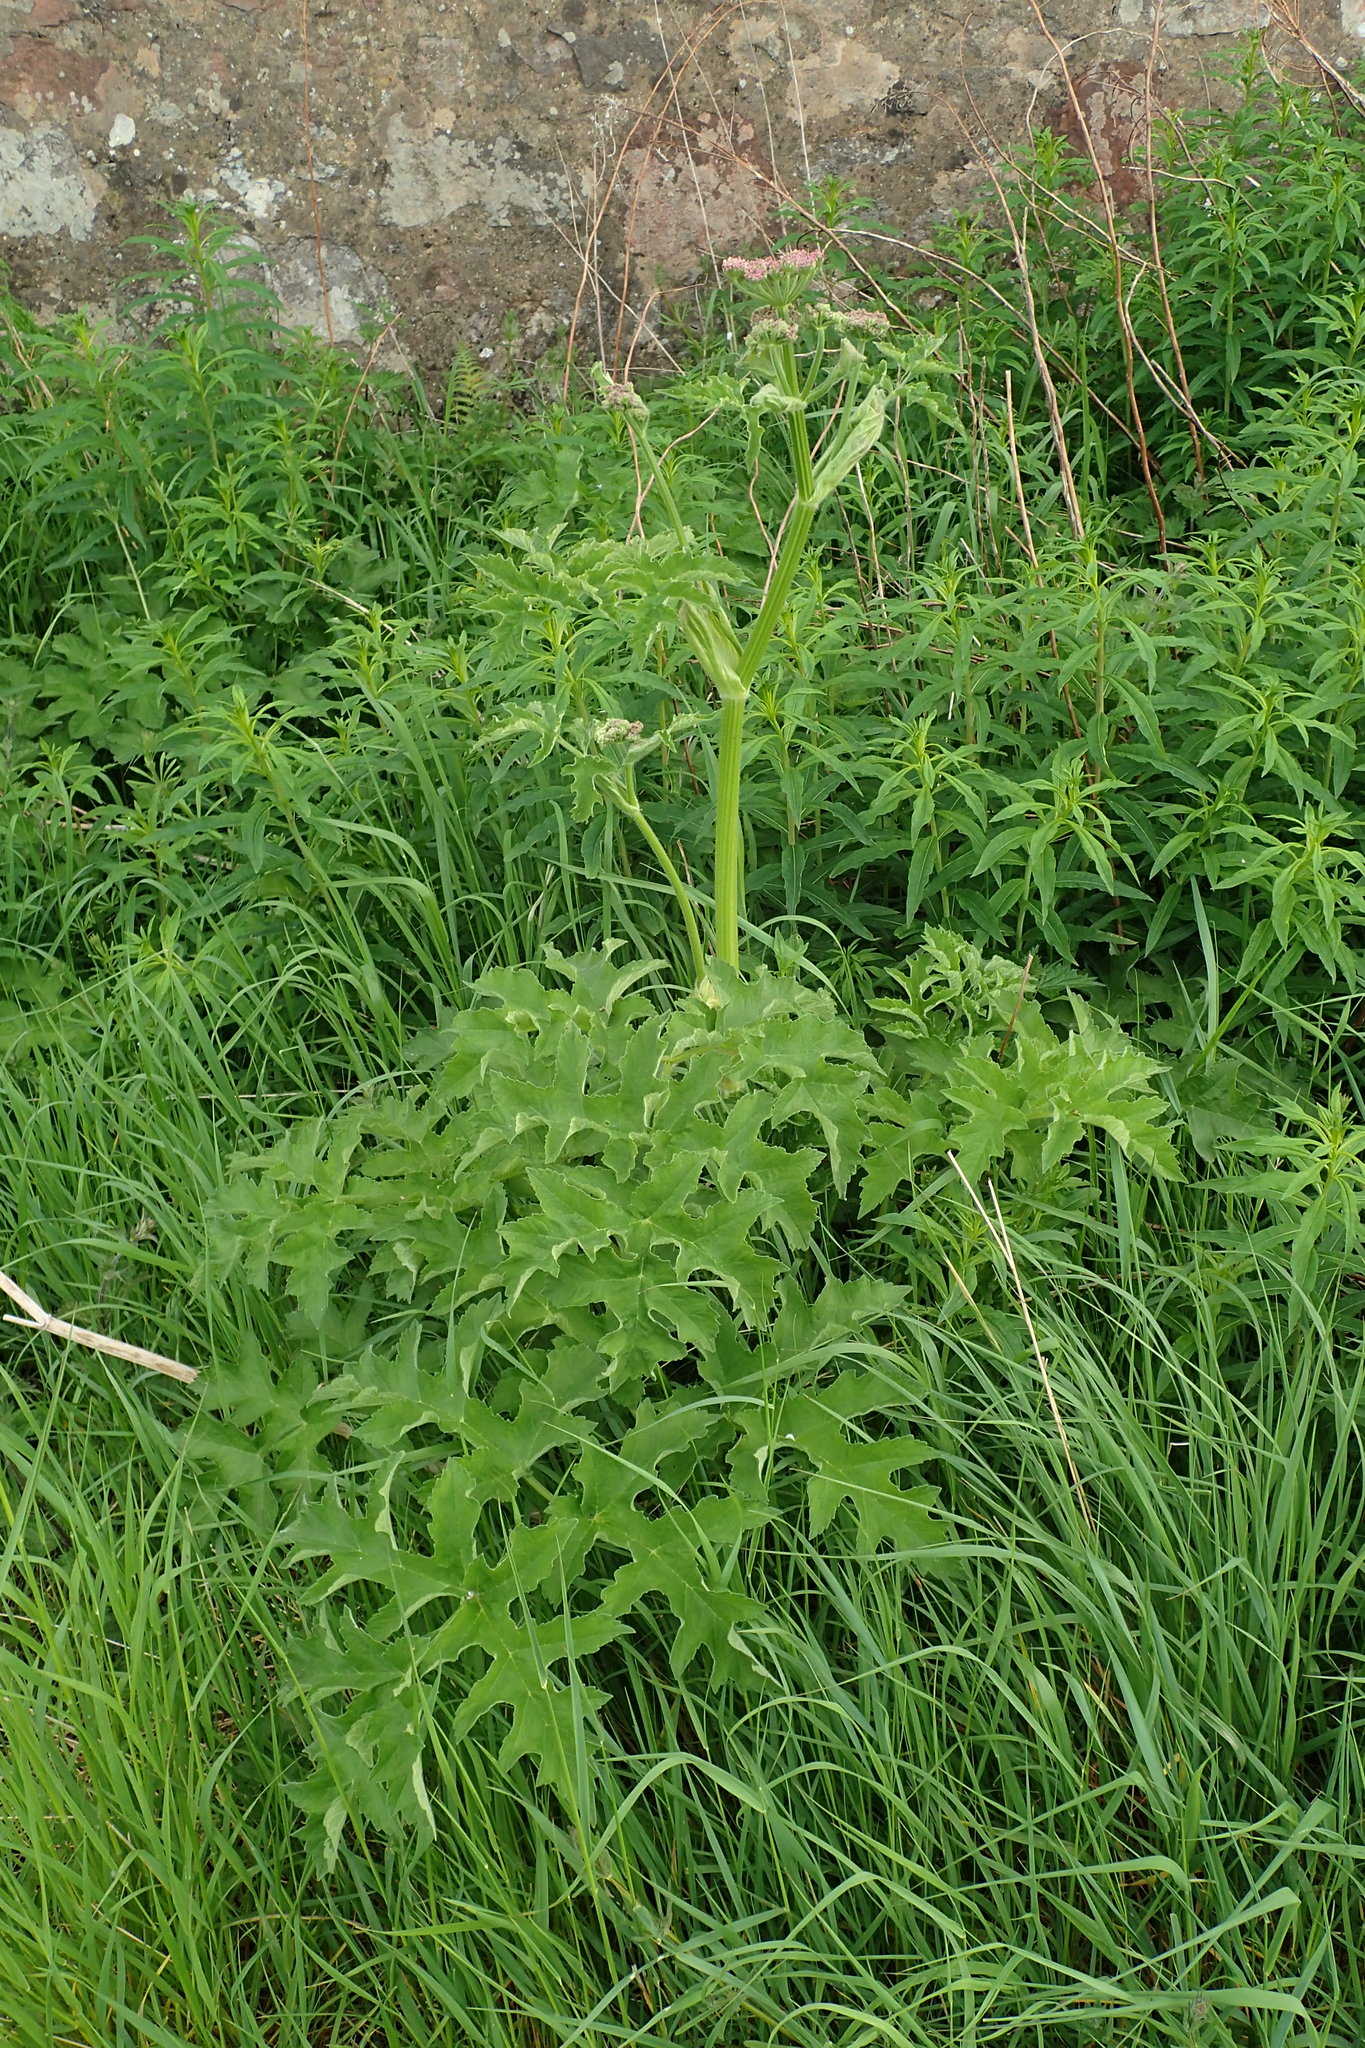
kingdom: Plantae
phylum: Tracheophyta
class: Magnoliopsida
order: Apiales
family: Apiaceae
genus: Heracleum
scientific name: Heracleum sphondylium
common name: Hogweed
